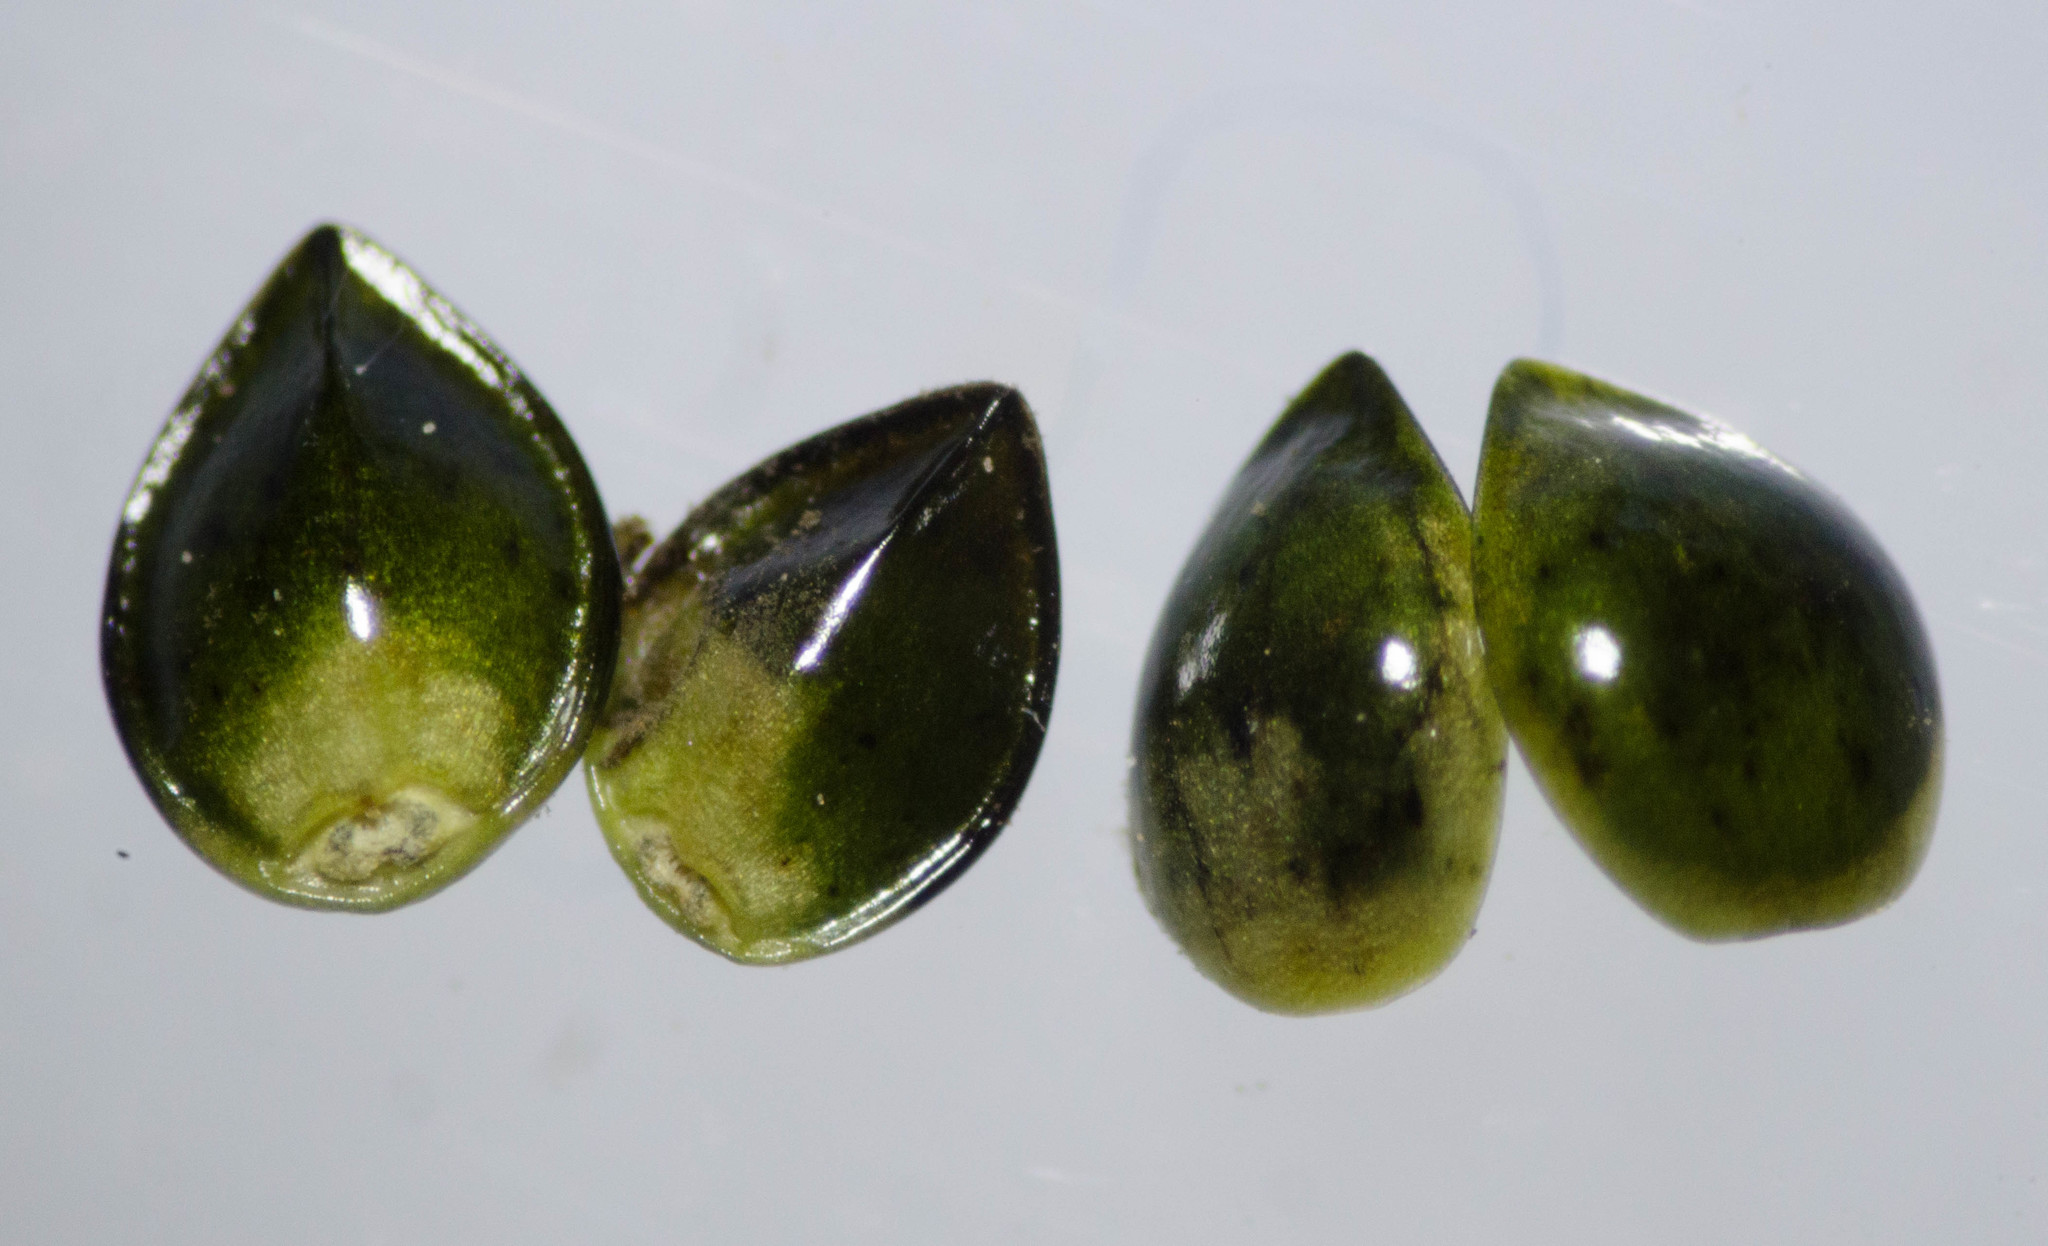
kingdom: Plantae
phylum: Tracheophyta
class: Magnoliopsida
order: Boraginales
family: Boraginaceae
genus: Myosotis
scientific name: Myosotis latifolia
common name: Broadleaf forget-me-not
